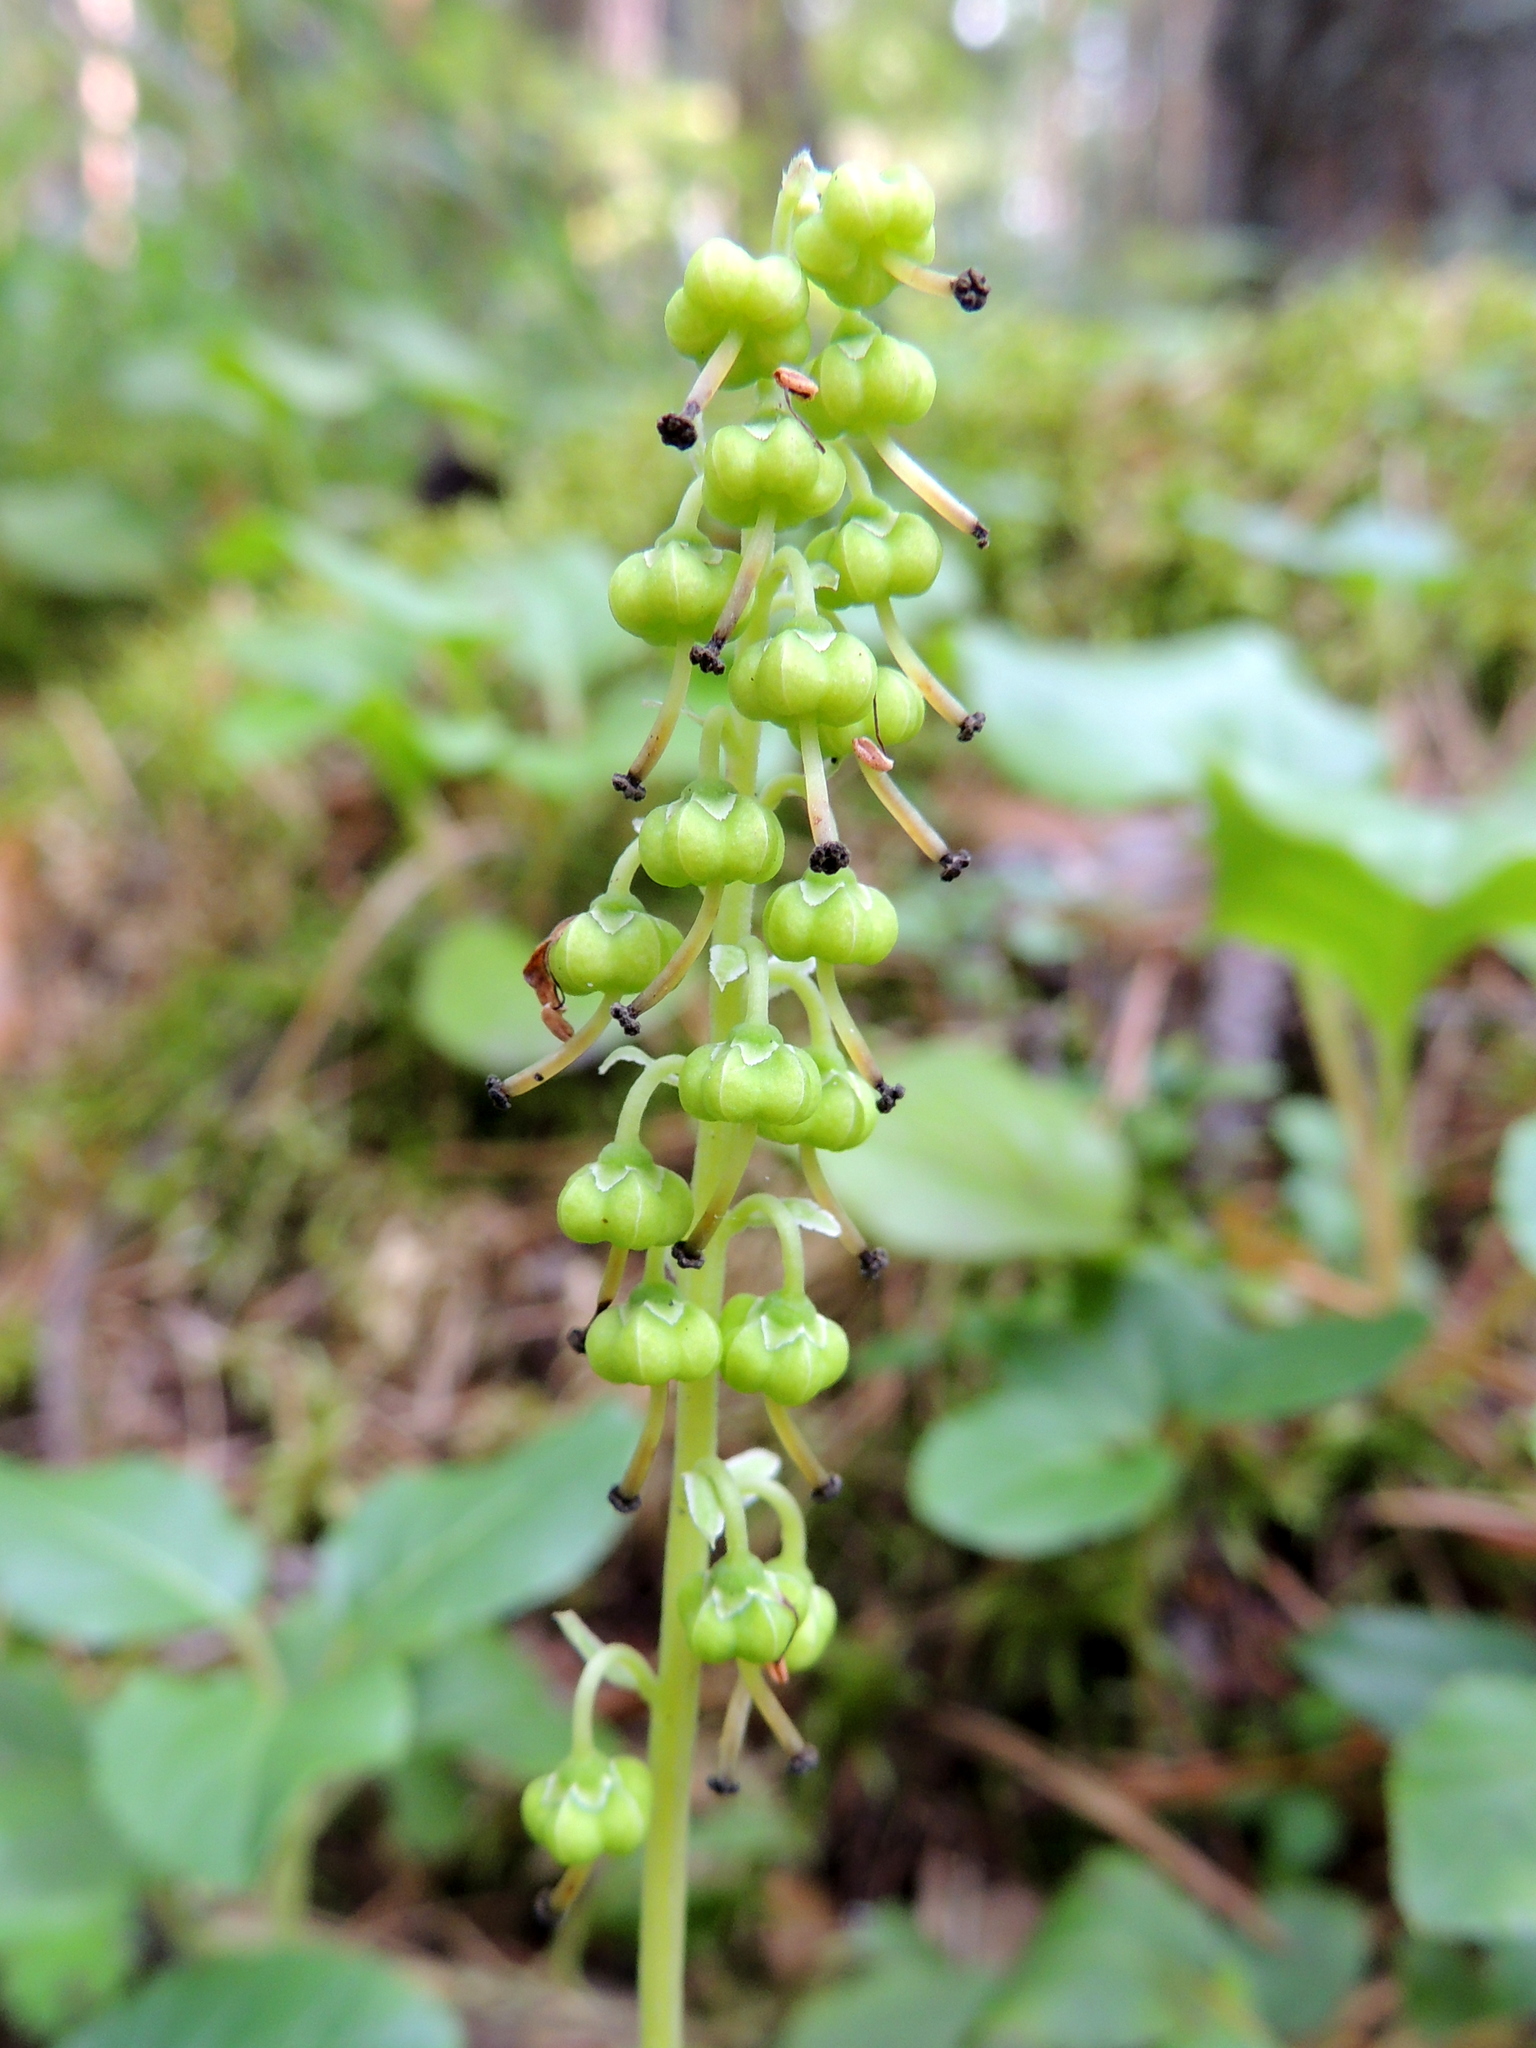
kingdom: Plantae
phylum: Tracheophyta
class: Magnoliopsida
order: Ericales
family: Ericaceae
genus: Orthilia
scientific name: Orthilia secunda
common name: One-sided orthilia
